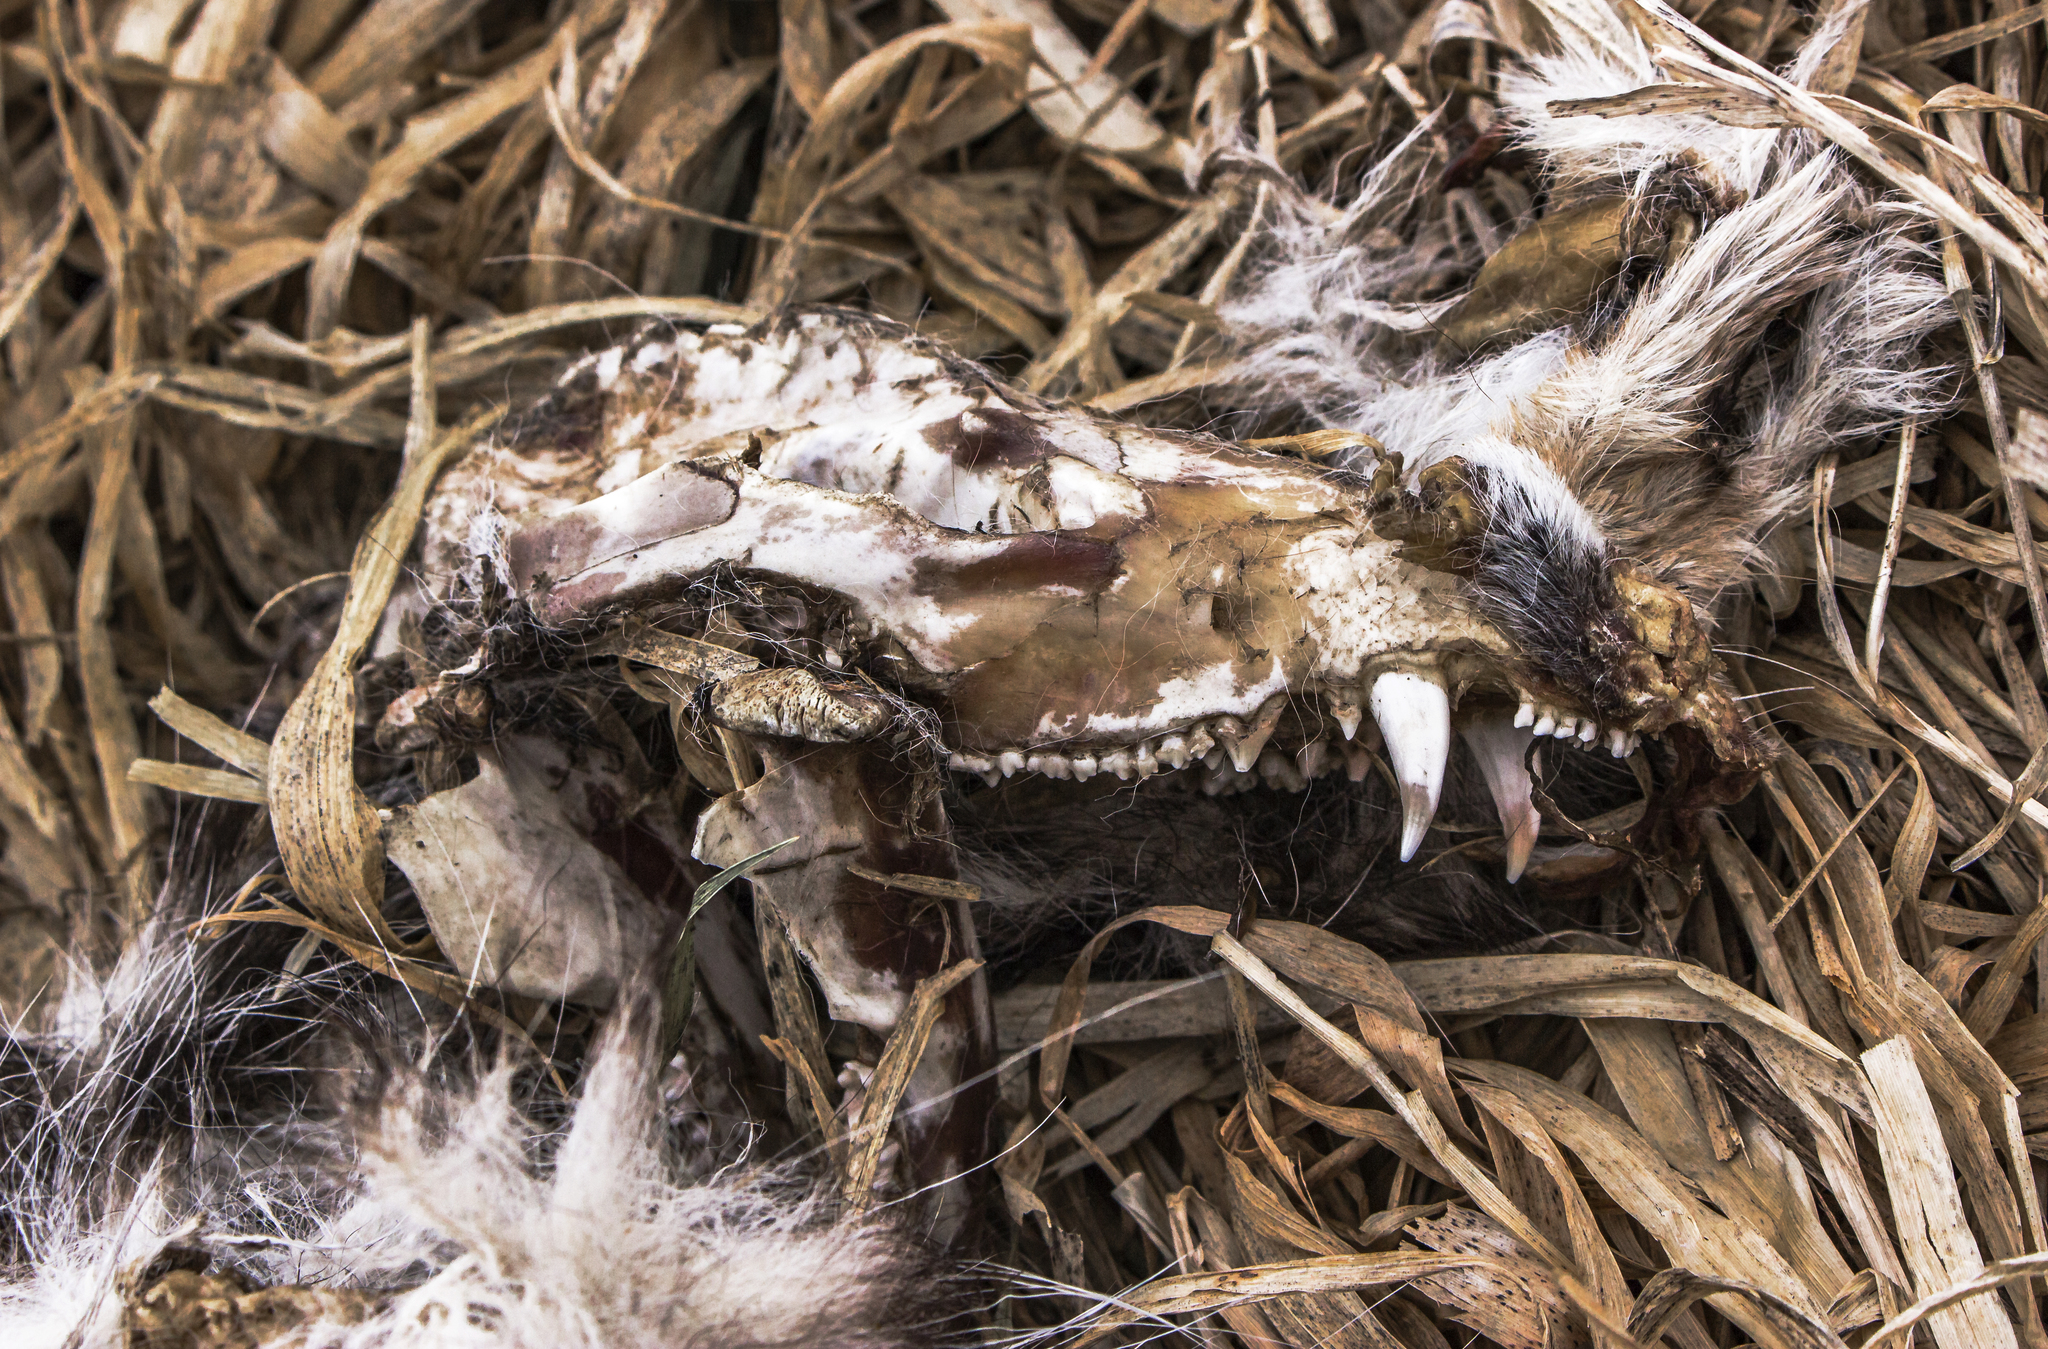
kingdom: Animalia
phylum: Chordata
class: Mammalia
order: Didelphimorphia
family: Didelphidae
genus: Didelphis
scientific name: Didelphis virginiana
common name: Virginia opossum
